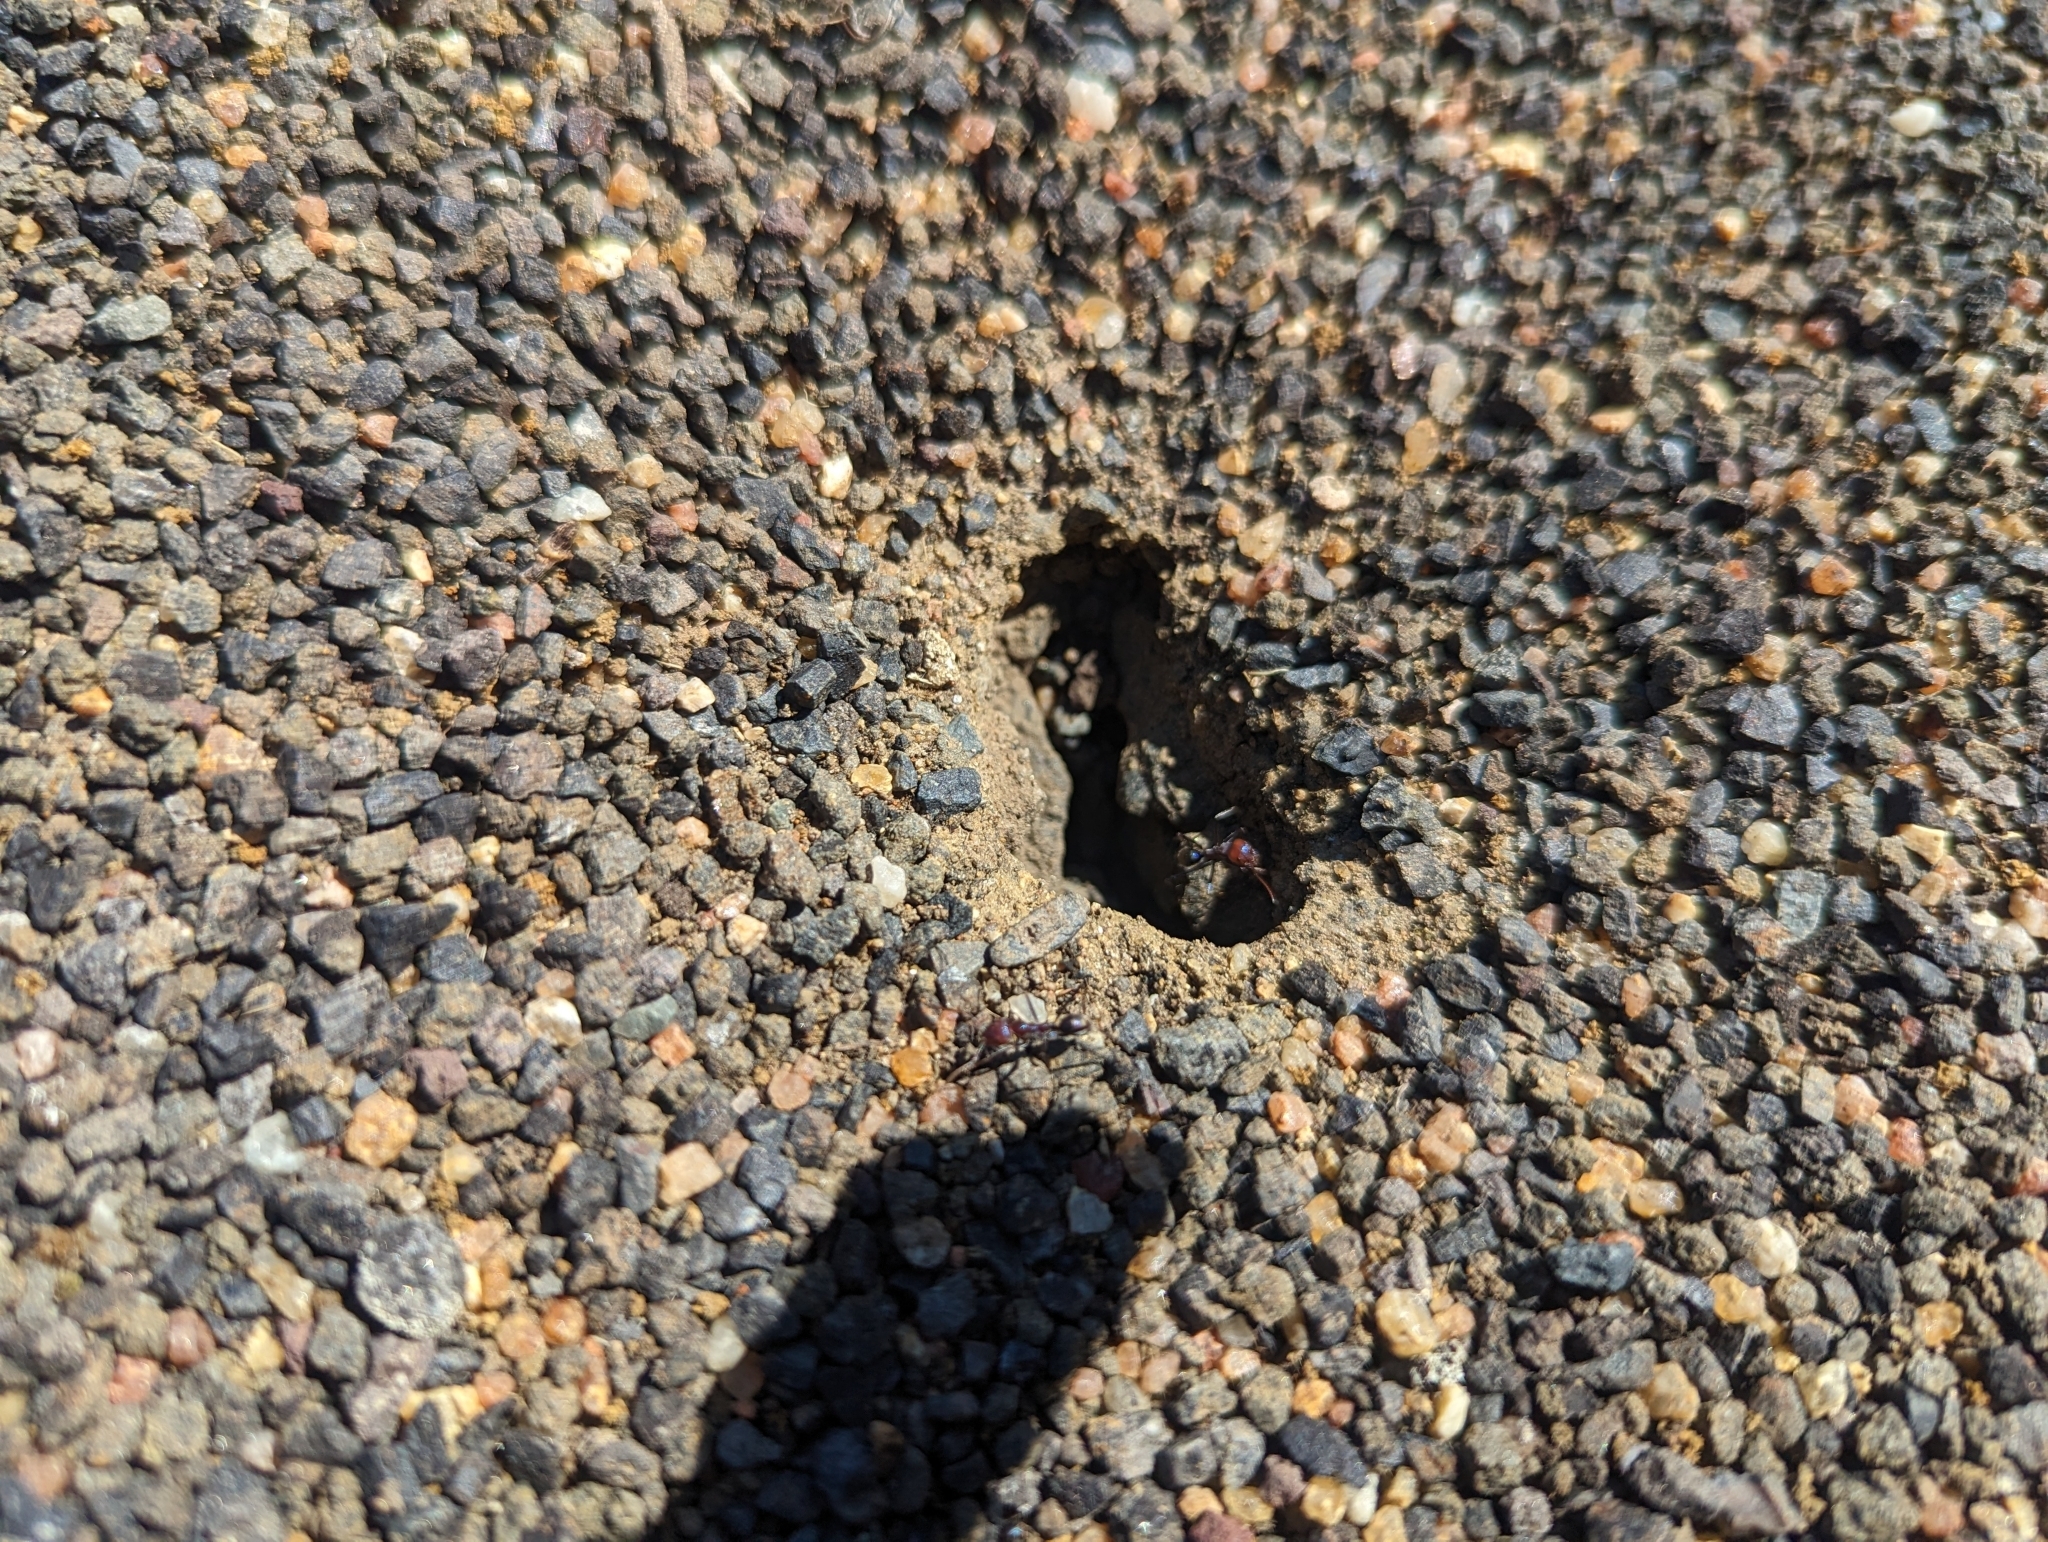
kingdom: Animalia
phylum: Arthropoda
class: Insecta
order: Hymenoptera
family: Formicidae
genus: Iridomyrmex
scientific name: Iridomyrmex purpureus
